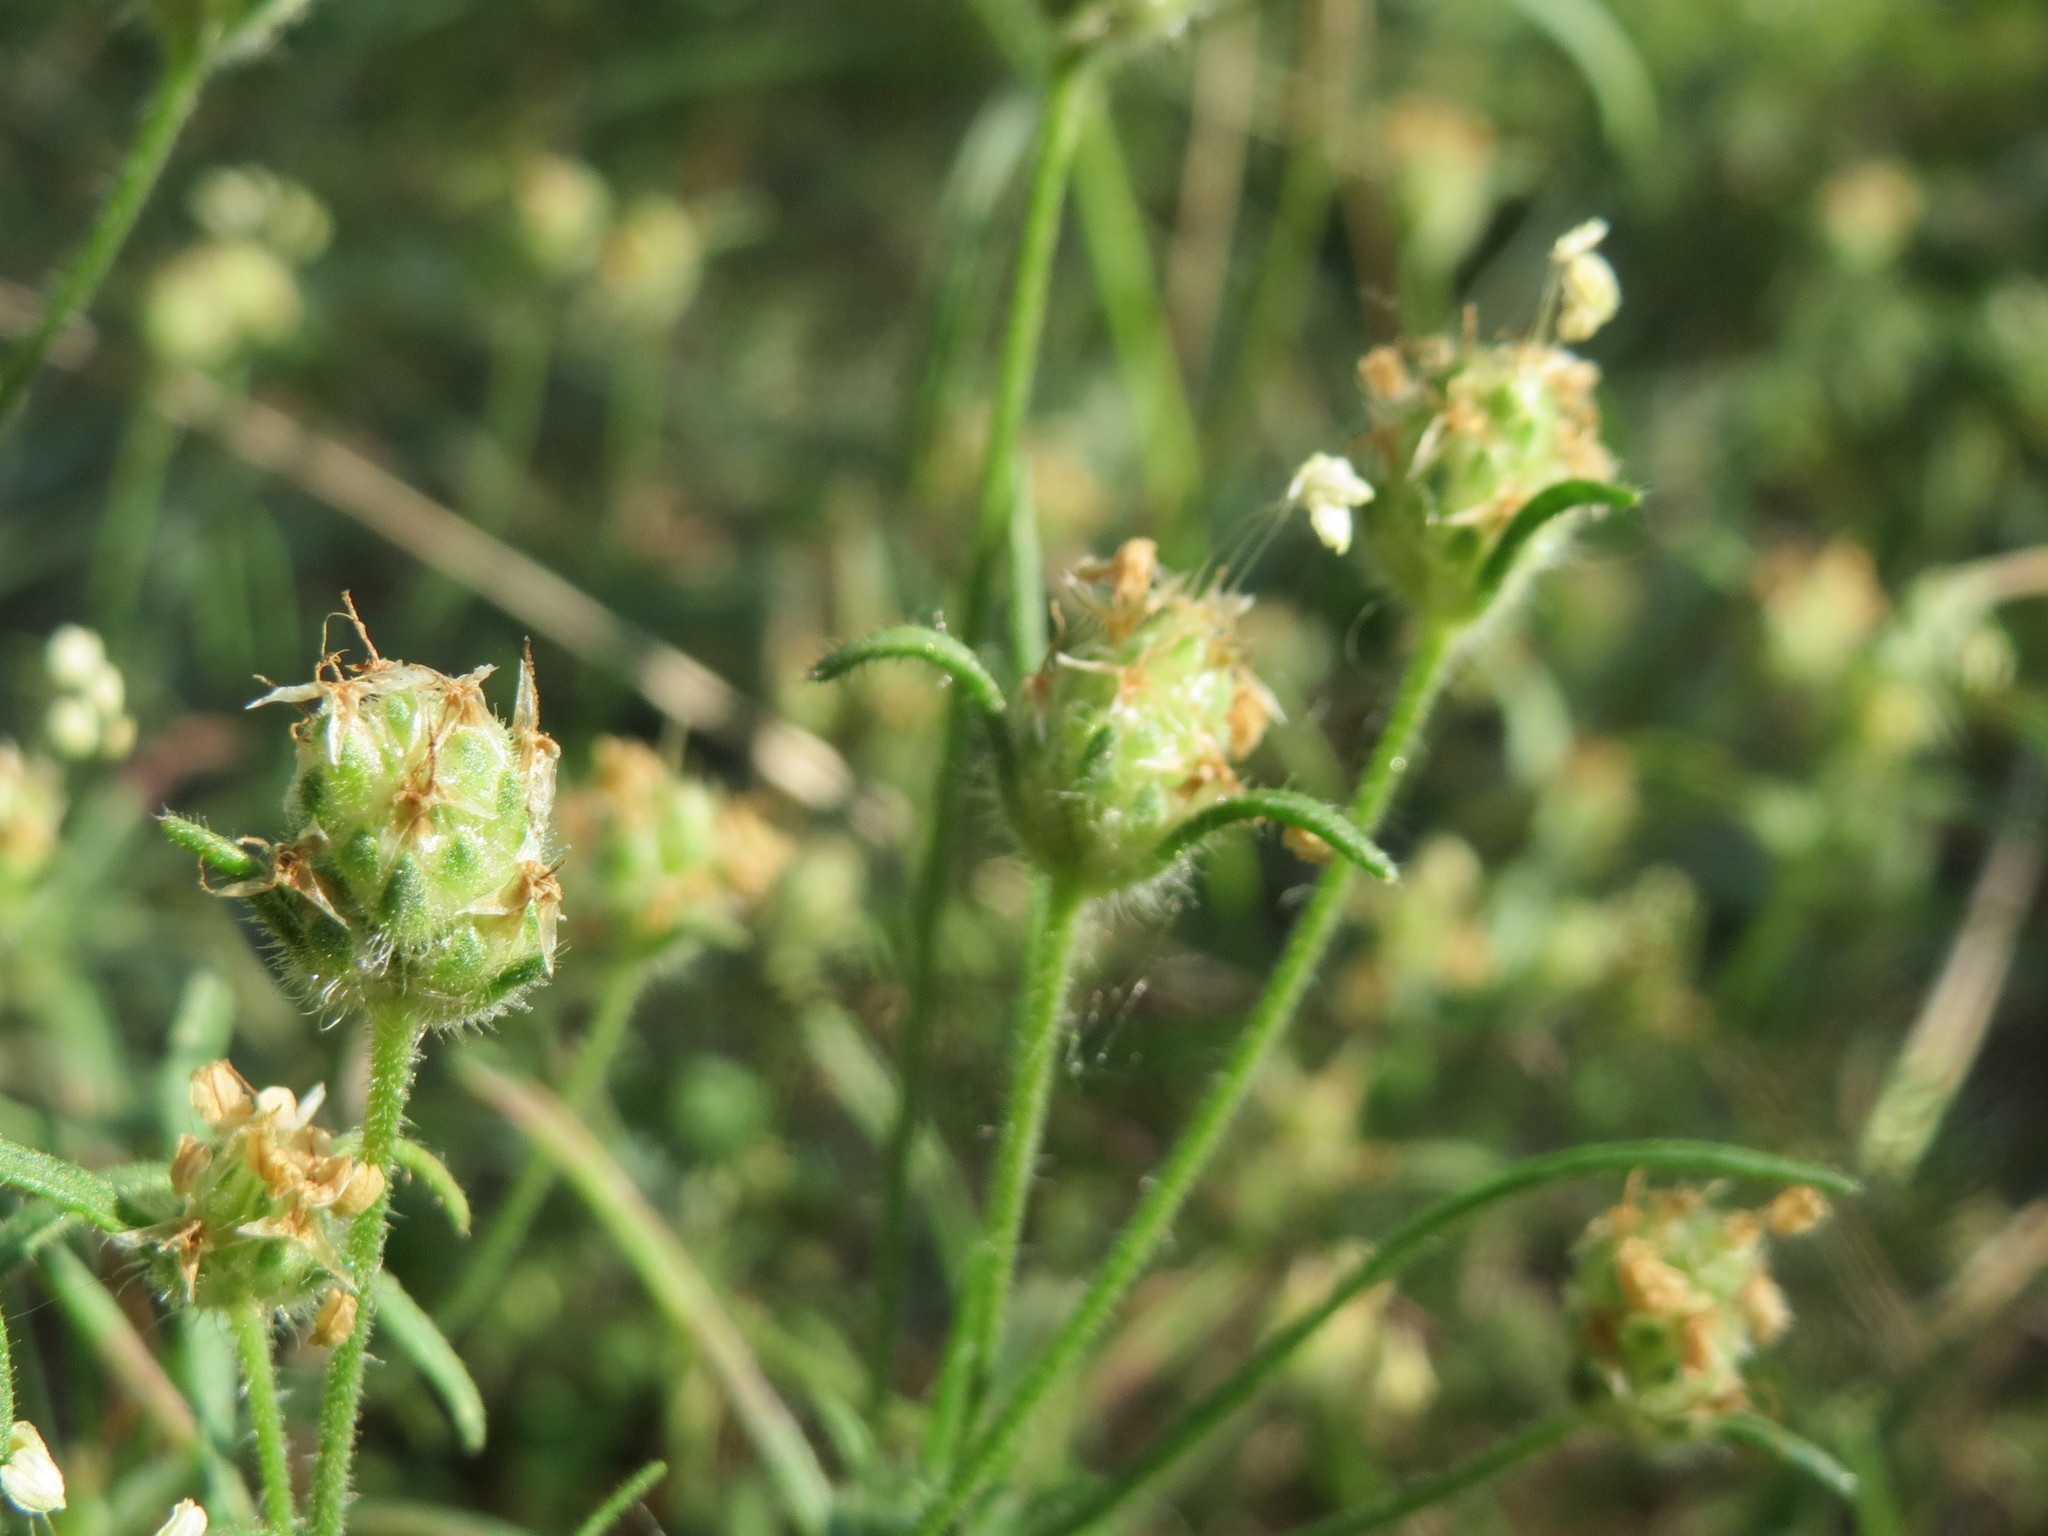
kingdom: Plantae
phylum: Tracheophyta
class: Magnoliopsida
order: Lamiales
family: Plantaginaceae
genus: Plantago
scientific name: Plantago arenaria
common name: Branched plantain
